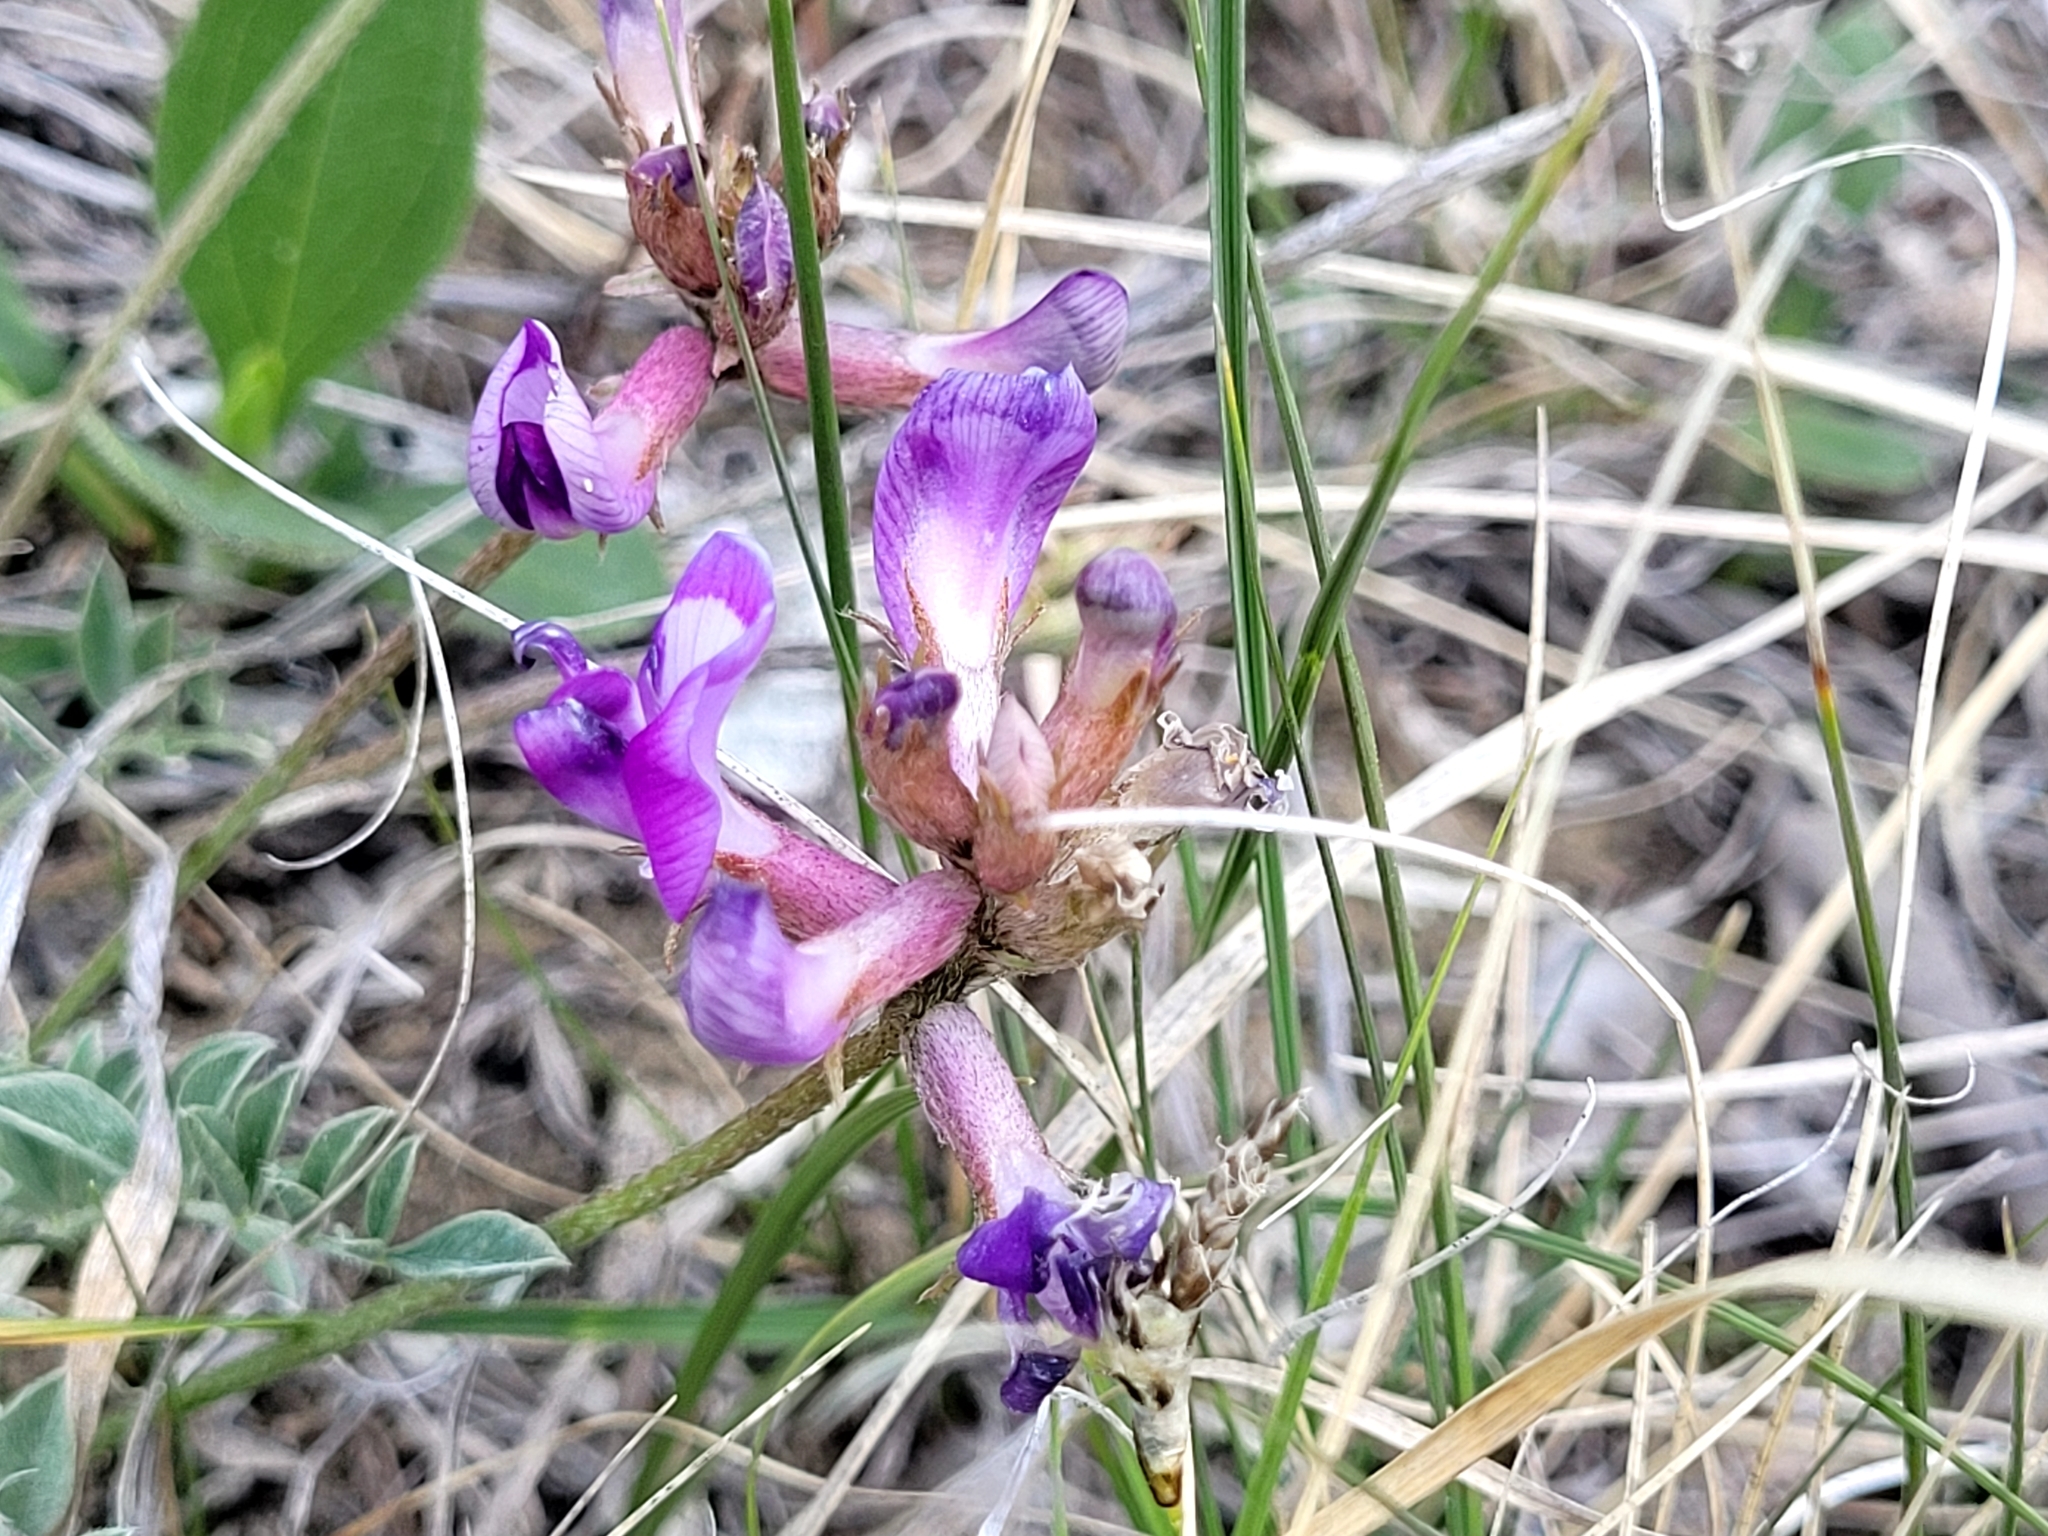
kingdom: Plantae
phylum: Tracheophyta
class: Magnoliopsida
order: Fabales
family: Fabaceae
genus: Astragalus
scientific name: Astragalus missouriensis
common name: Missouri milk-vetch
